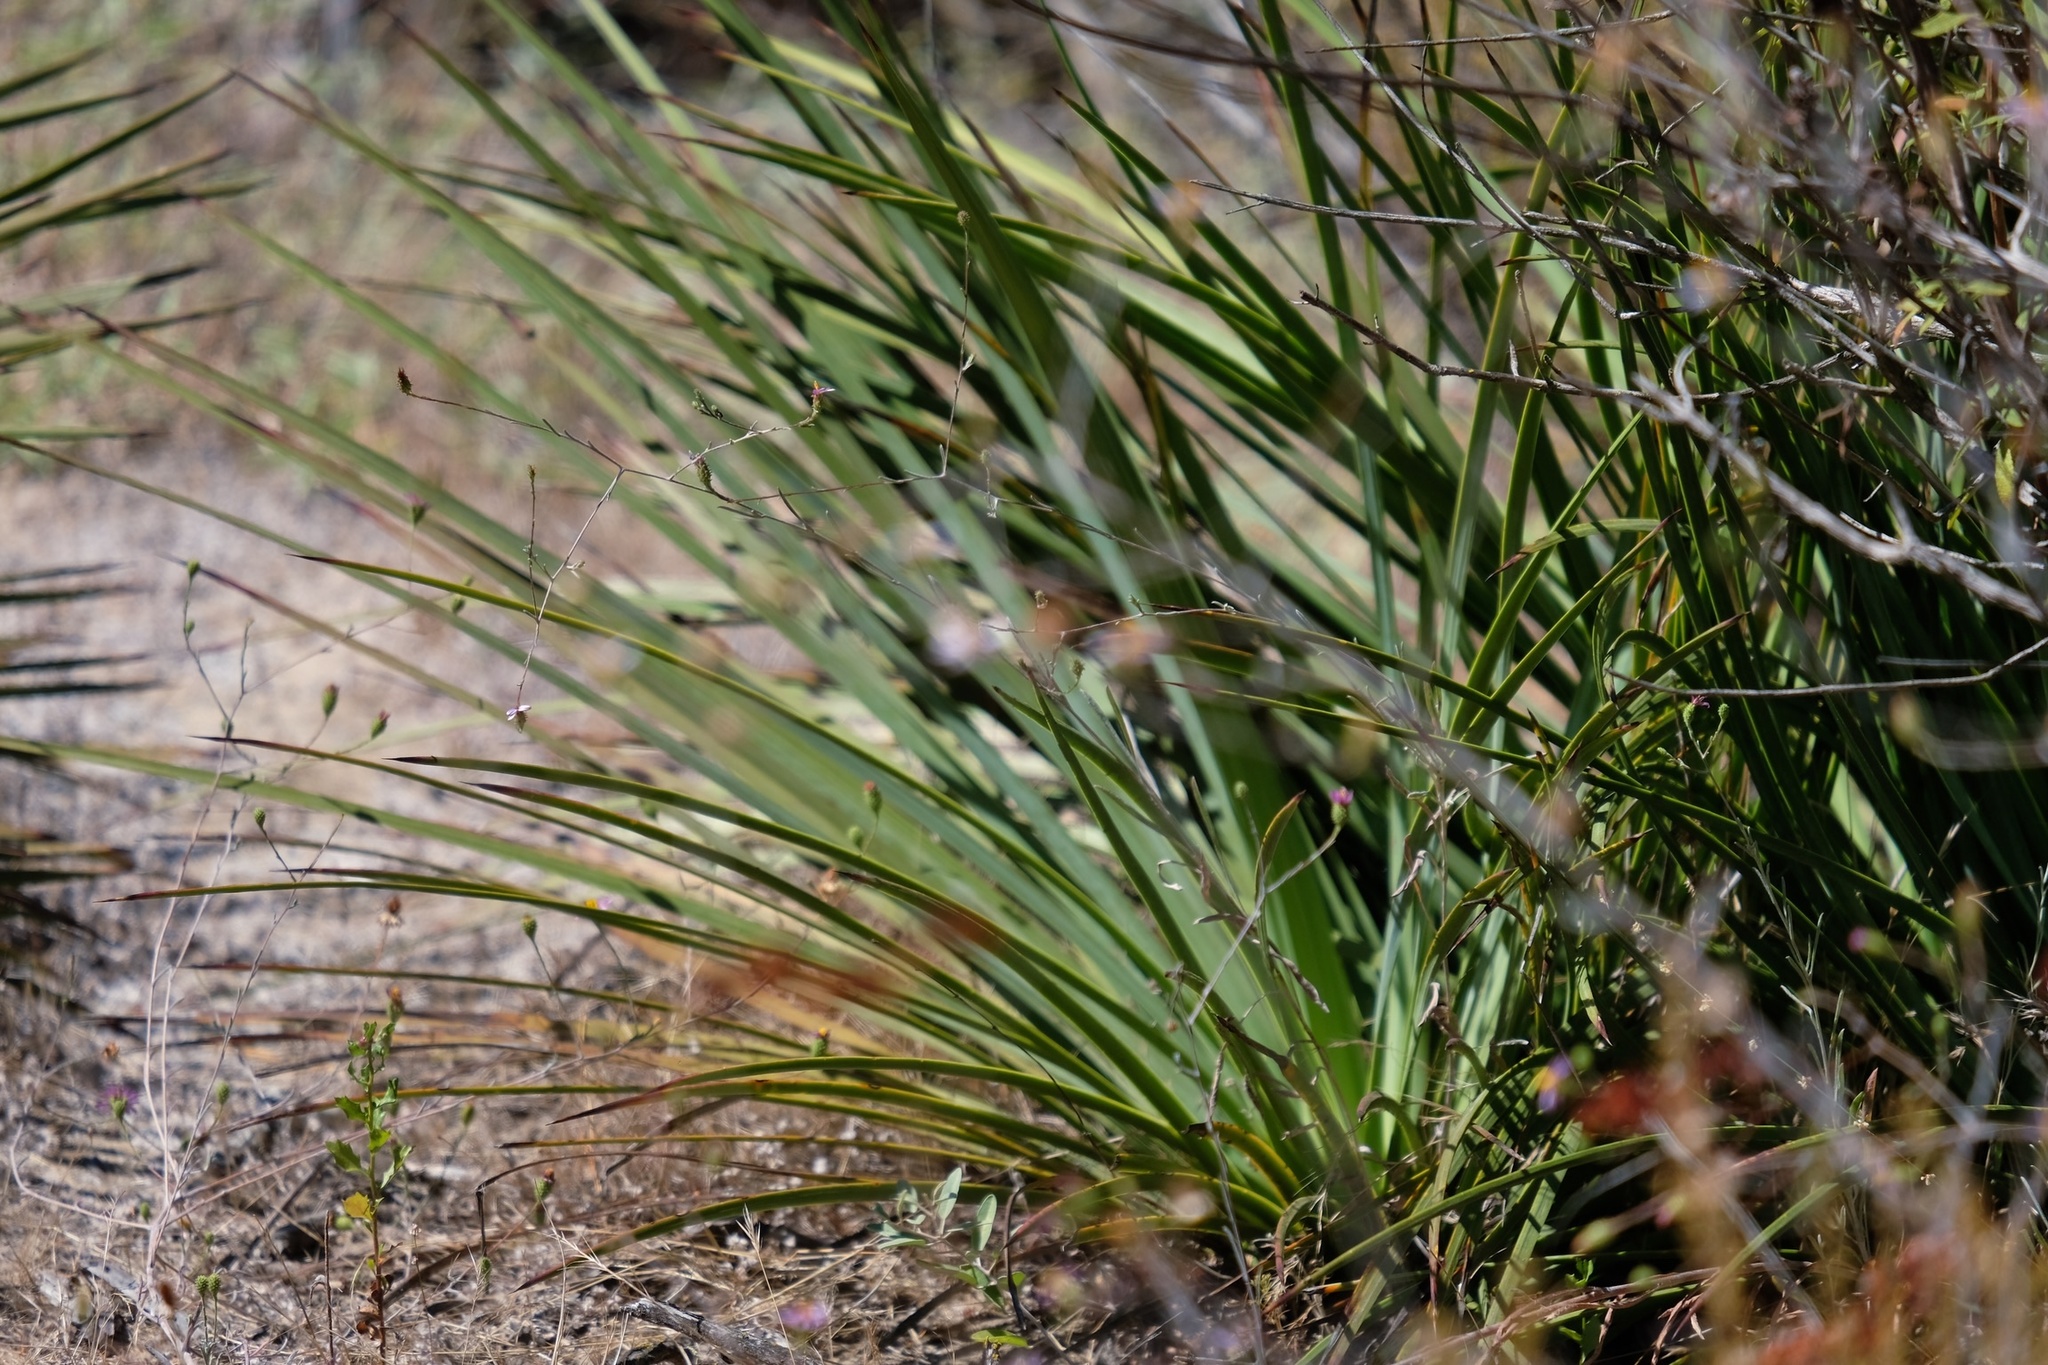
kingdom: Plantae
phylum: Tracheophyta
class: Liliopsida
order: Asparagales
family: Asparagaceae
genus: Hesperoyucca
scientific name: Hesperoyucca whipplei
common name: Our lord's-candle
